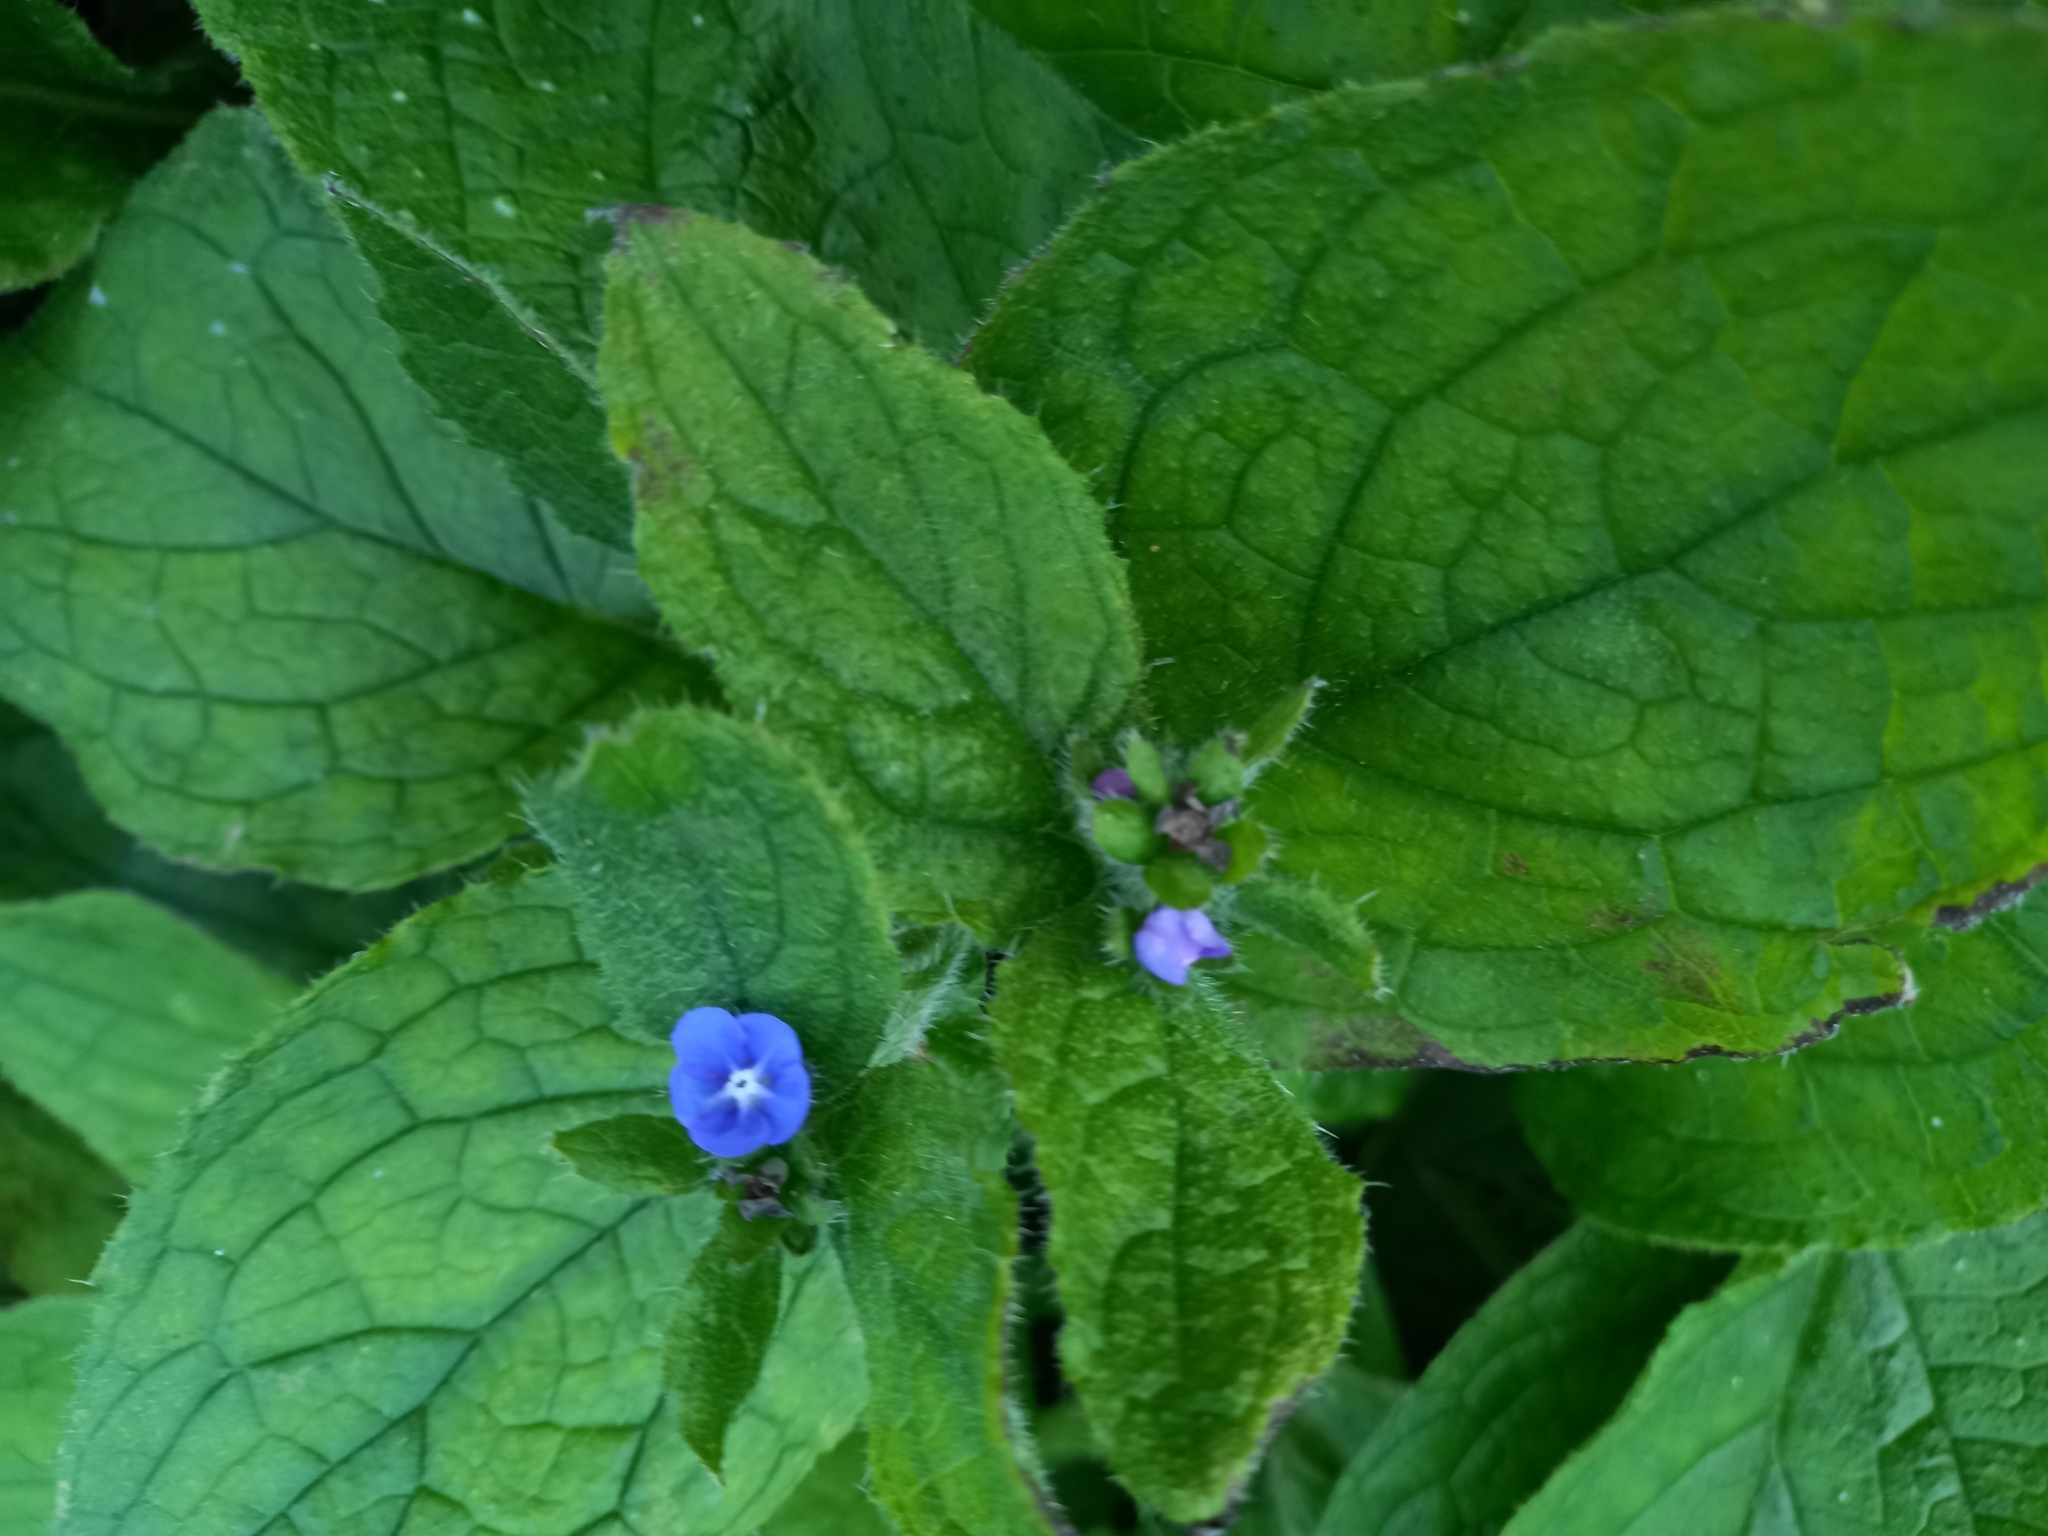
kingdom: Plantae
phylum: Tracheophyta
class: Magnoliopsida
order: Boraginales
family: Boraginaceae
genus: Pentaglottis
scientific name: Pentaglottis sempervirens
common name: Green alkanet
